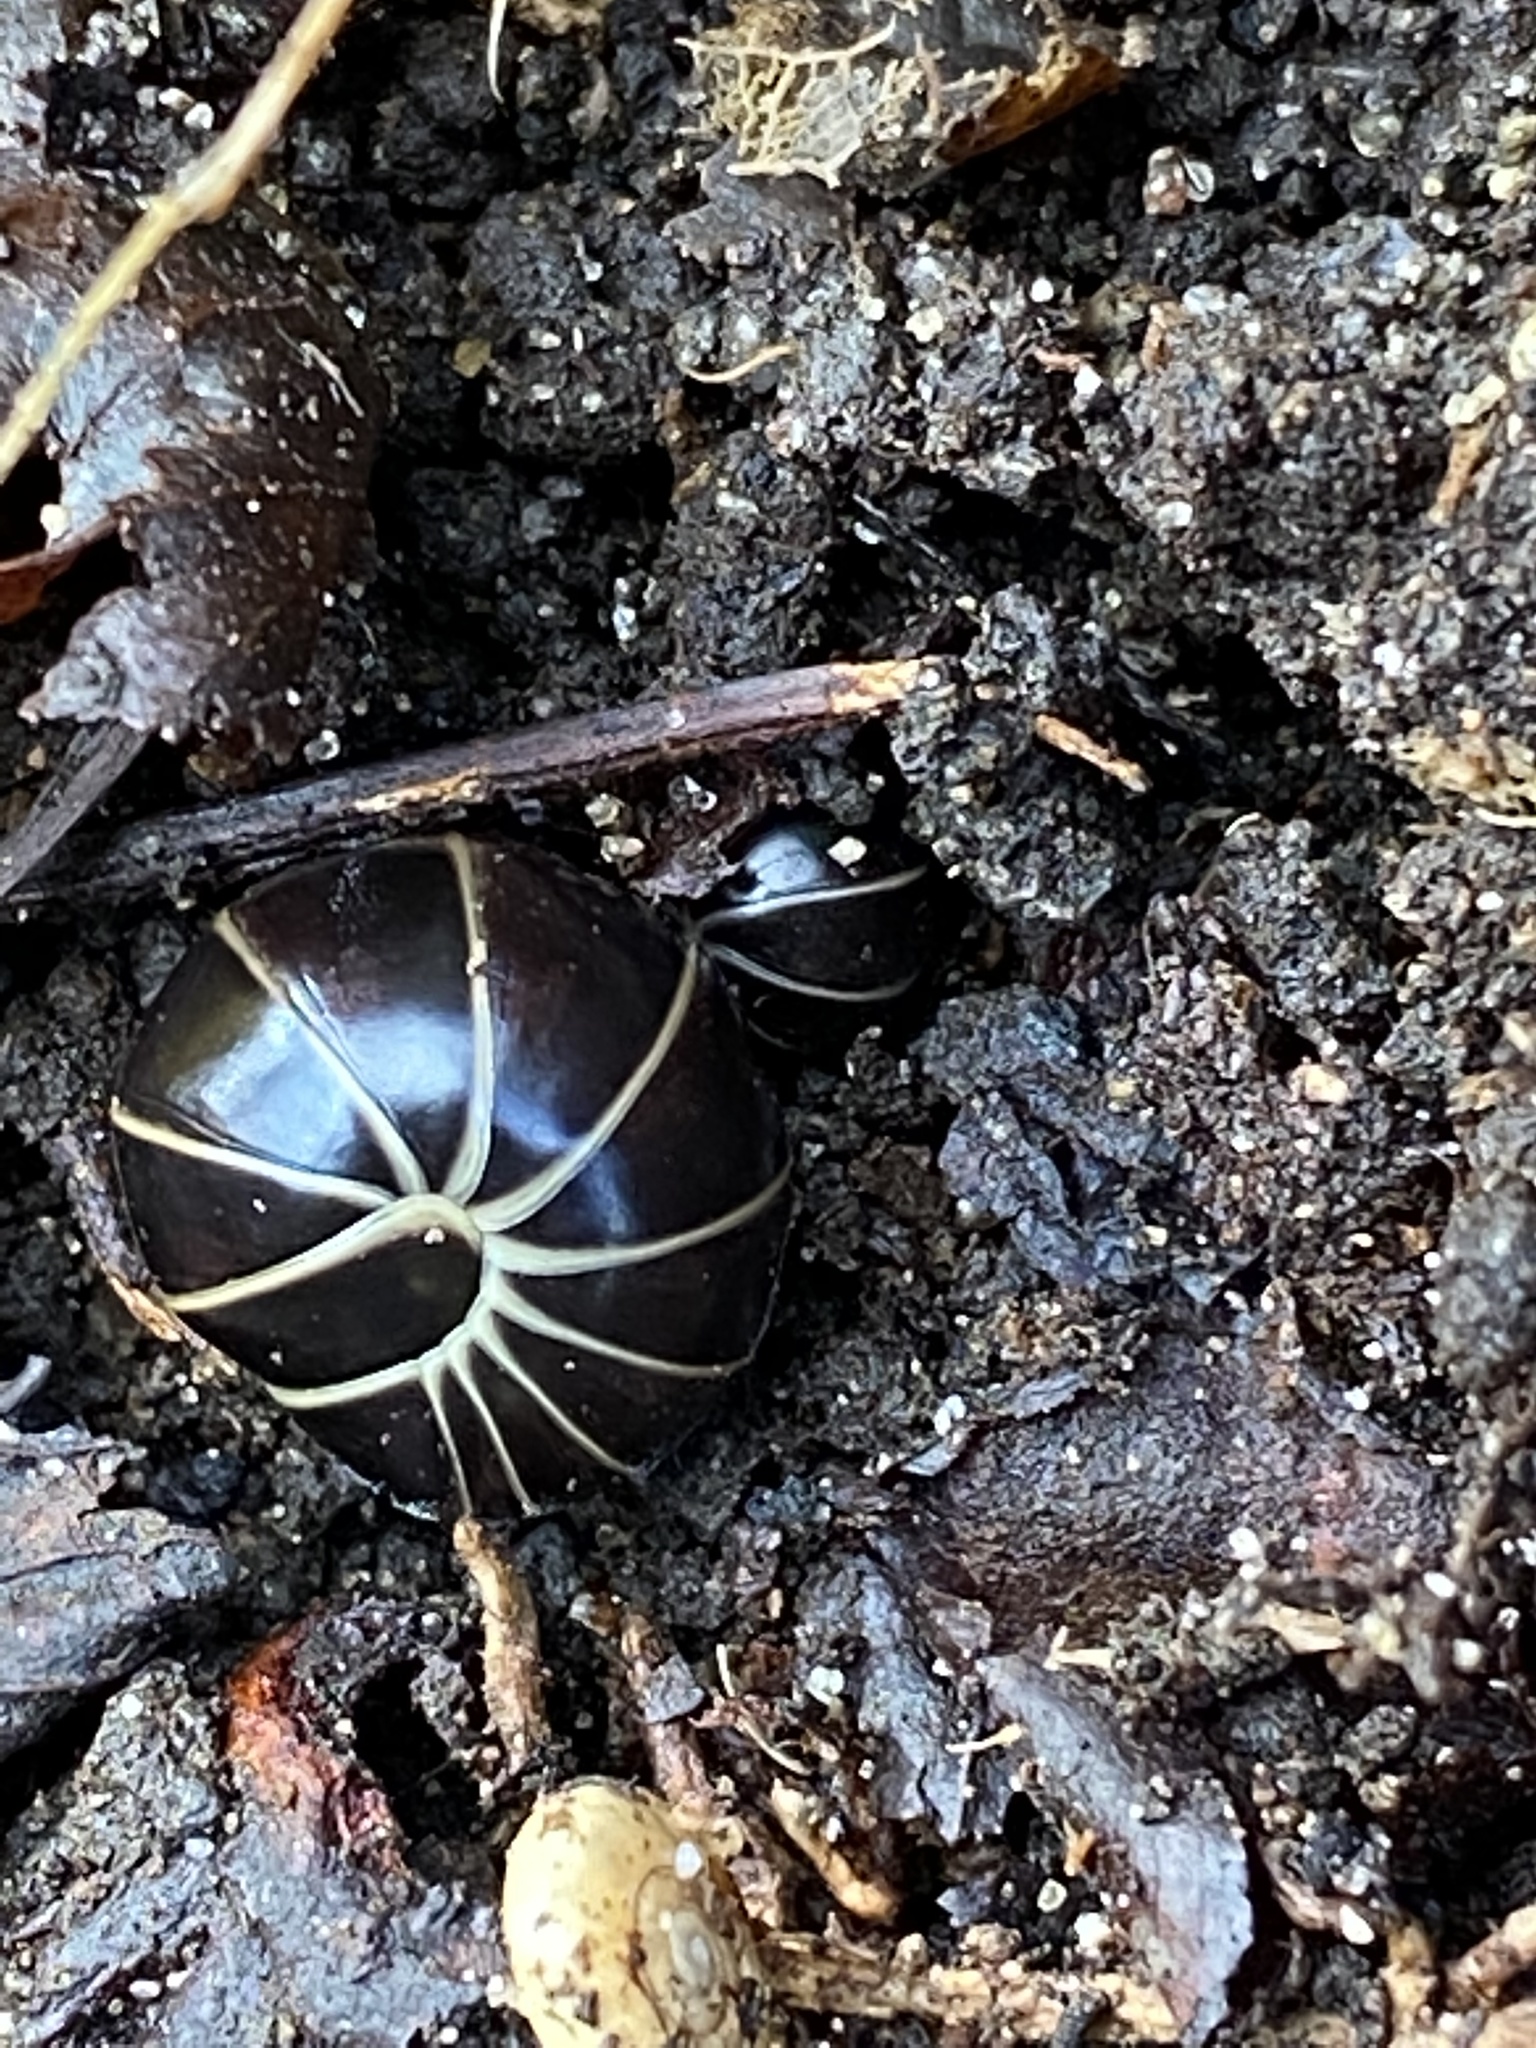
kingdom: Animalia
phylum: Arthropoda
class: Diplopoda
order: Glomerida
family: Glomeridae
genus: Glomeris
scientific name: Glomeris marginata
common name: Bordered pill millipede
